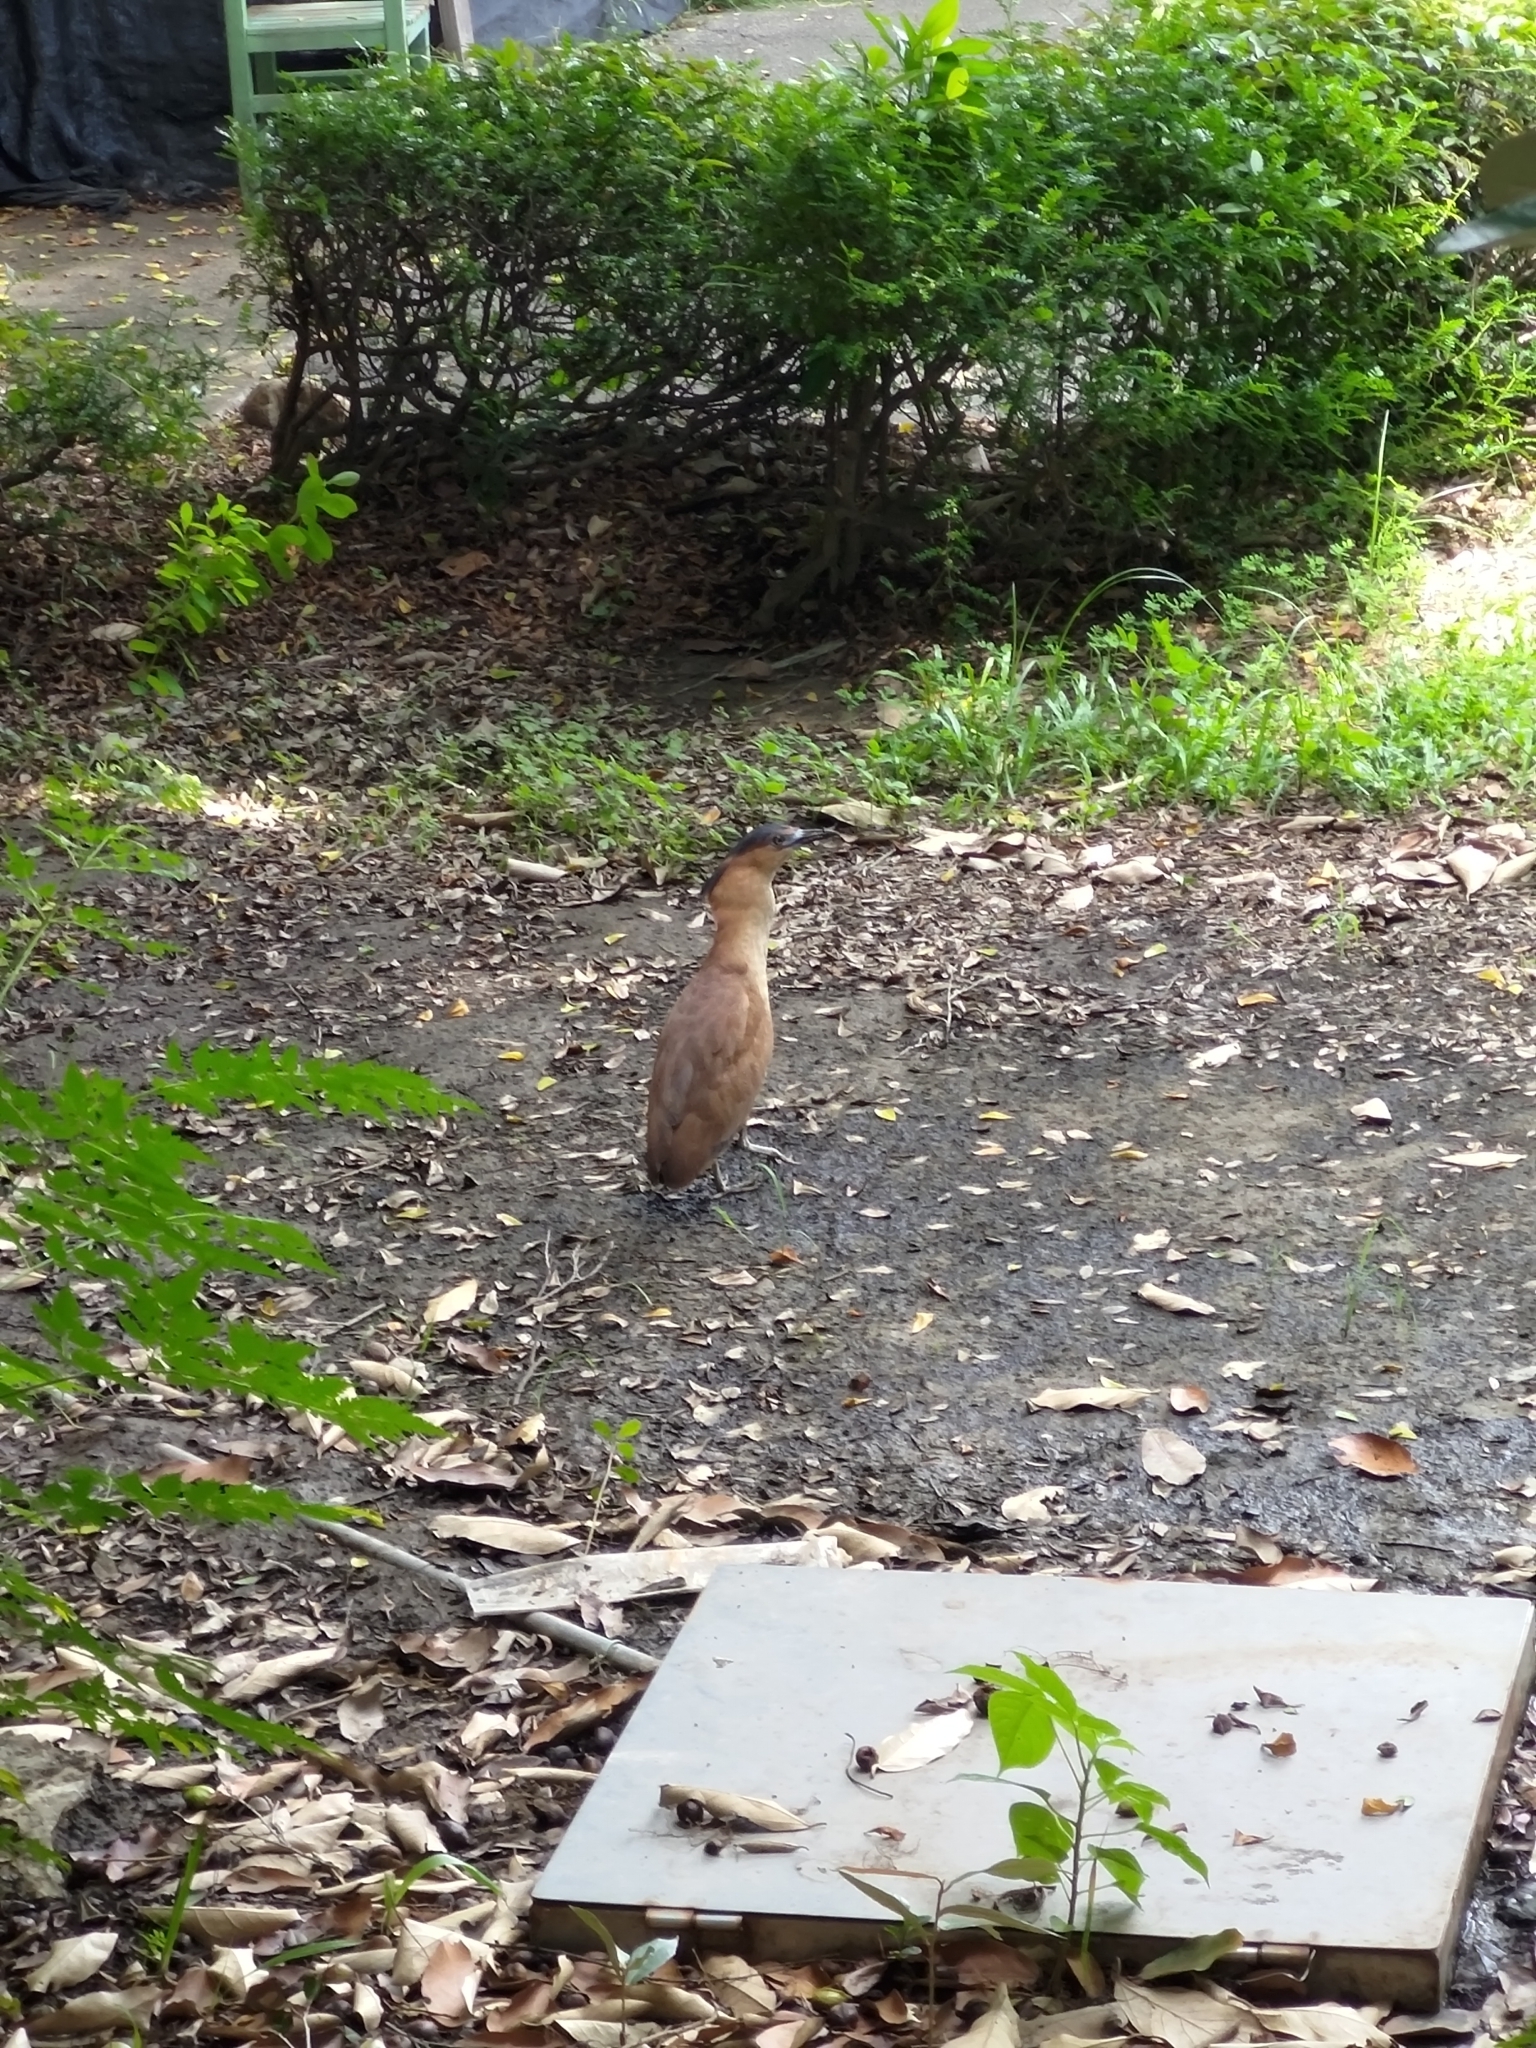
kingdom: Animalia
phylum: Chordata
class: Aves
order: Pelecaniformes
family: Ardeidae
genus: Gorsachius
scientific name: Gorsachius melanolophus
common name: Malayan night heron
